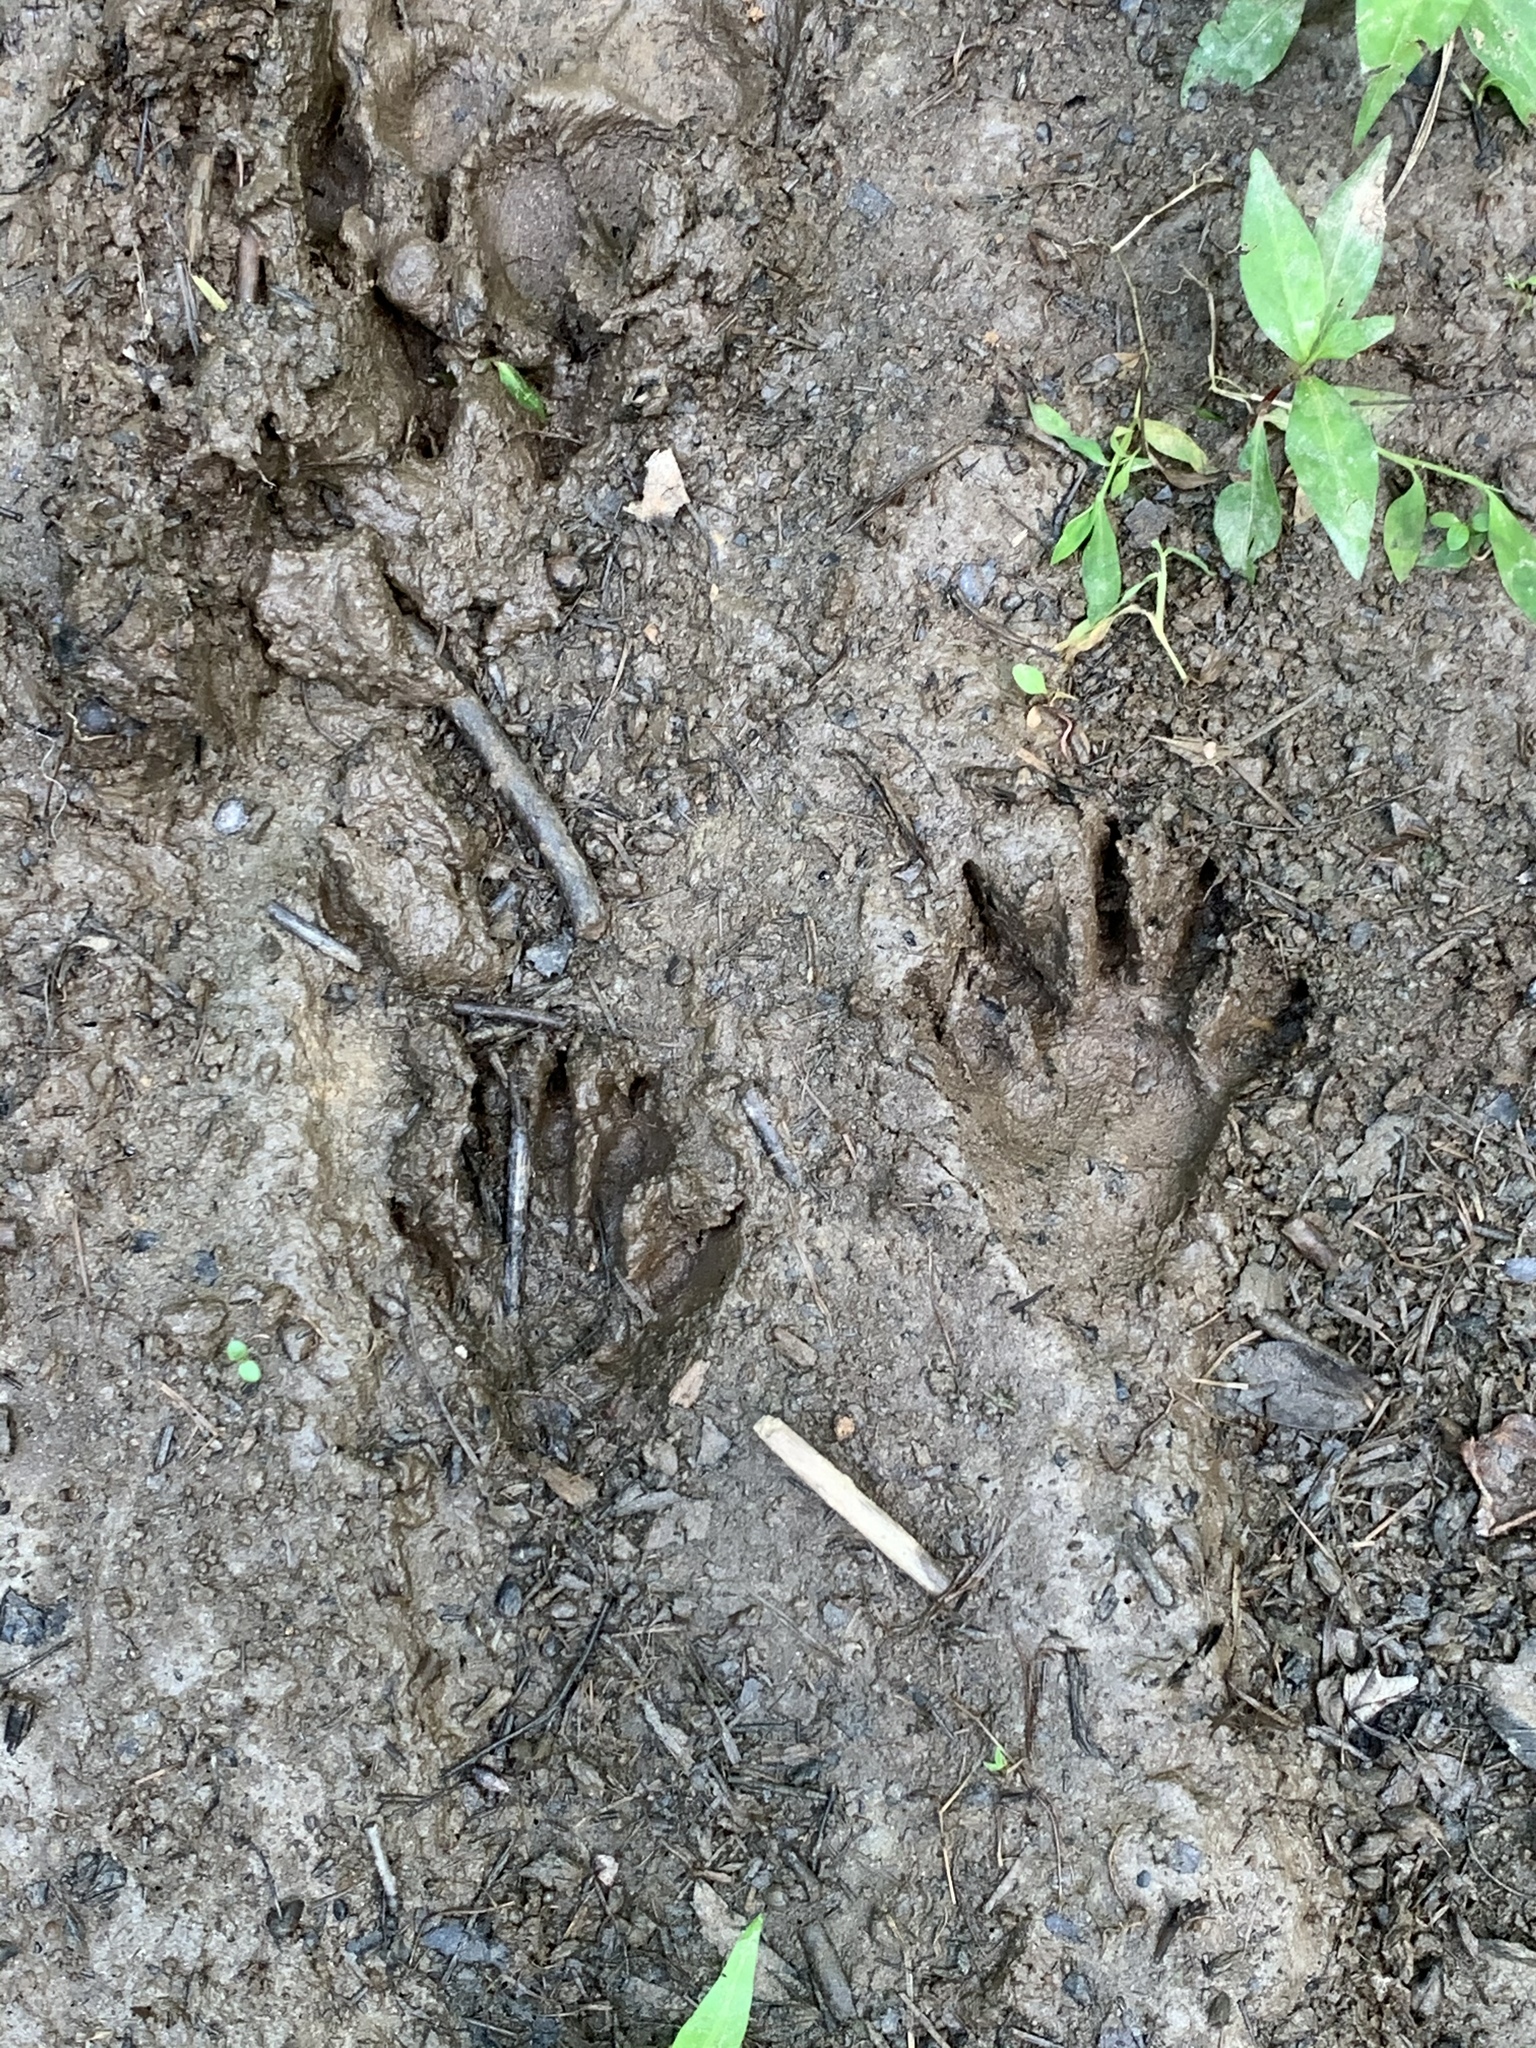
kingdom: Animalia
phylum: Chordata
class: Mammalia
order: Carnivora
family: Procyonidae
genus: Procyon
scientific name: Procyon lotor
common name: Raccoon
